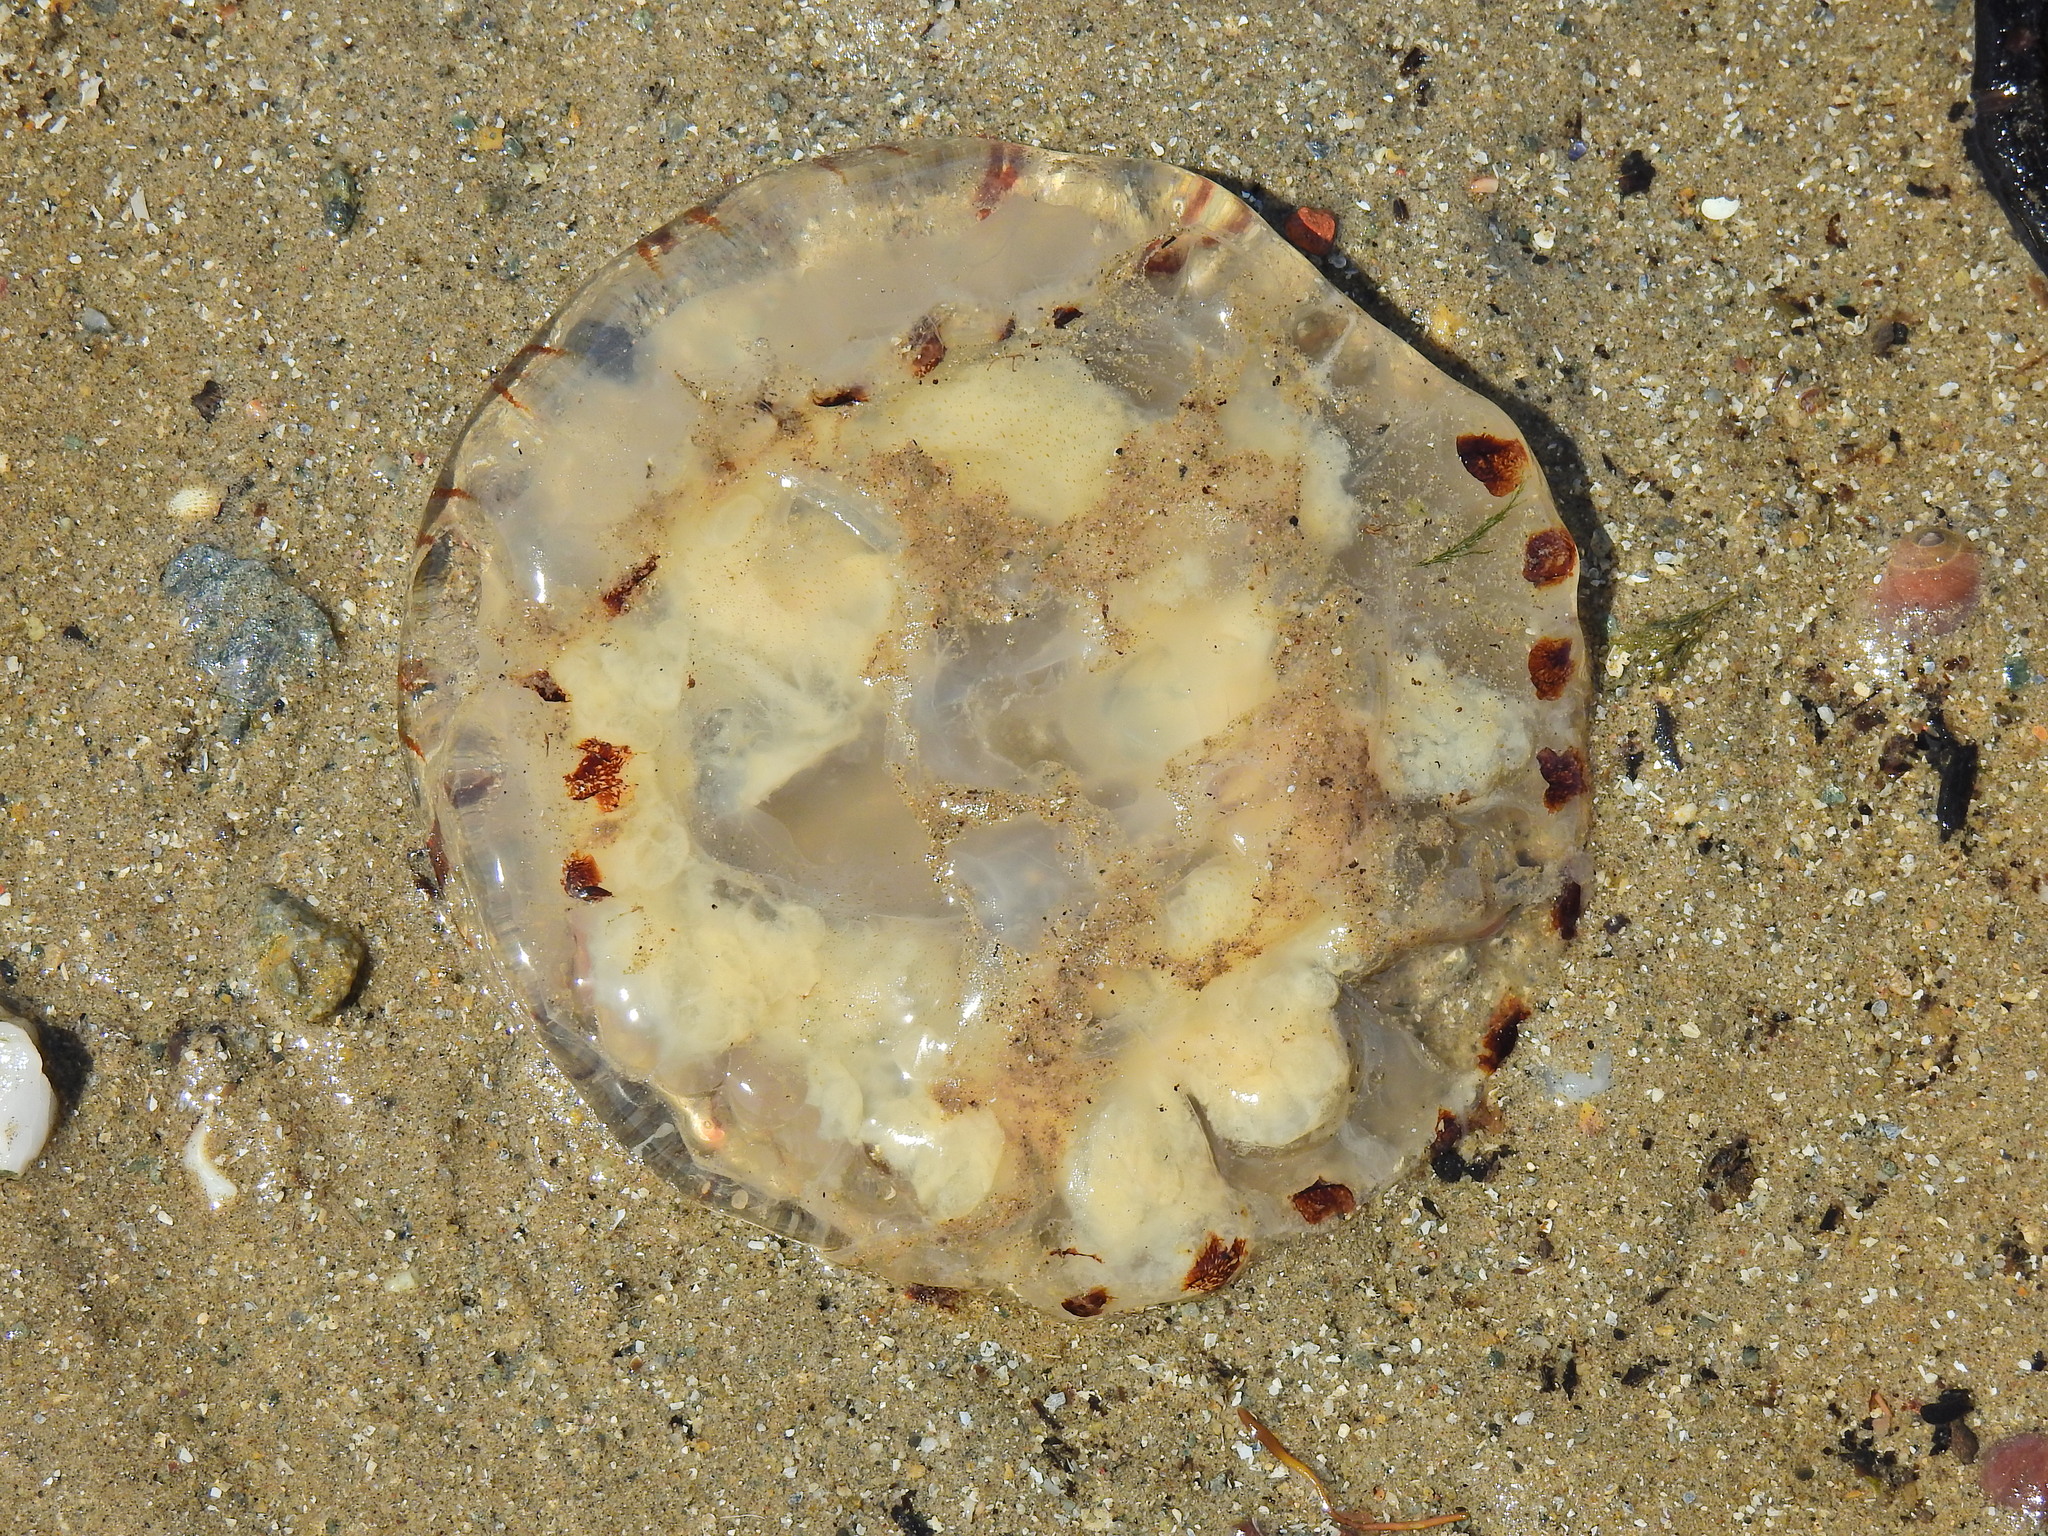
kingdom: Animalia
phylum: Cnidaria
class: Scyphozoa
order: Semaeostomeae
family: Pelagiidae
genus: Chrysaora
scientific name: Chrysaora hysoscella
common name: Compass jellyfish
